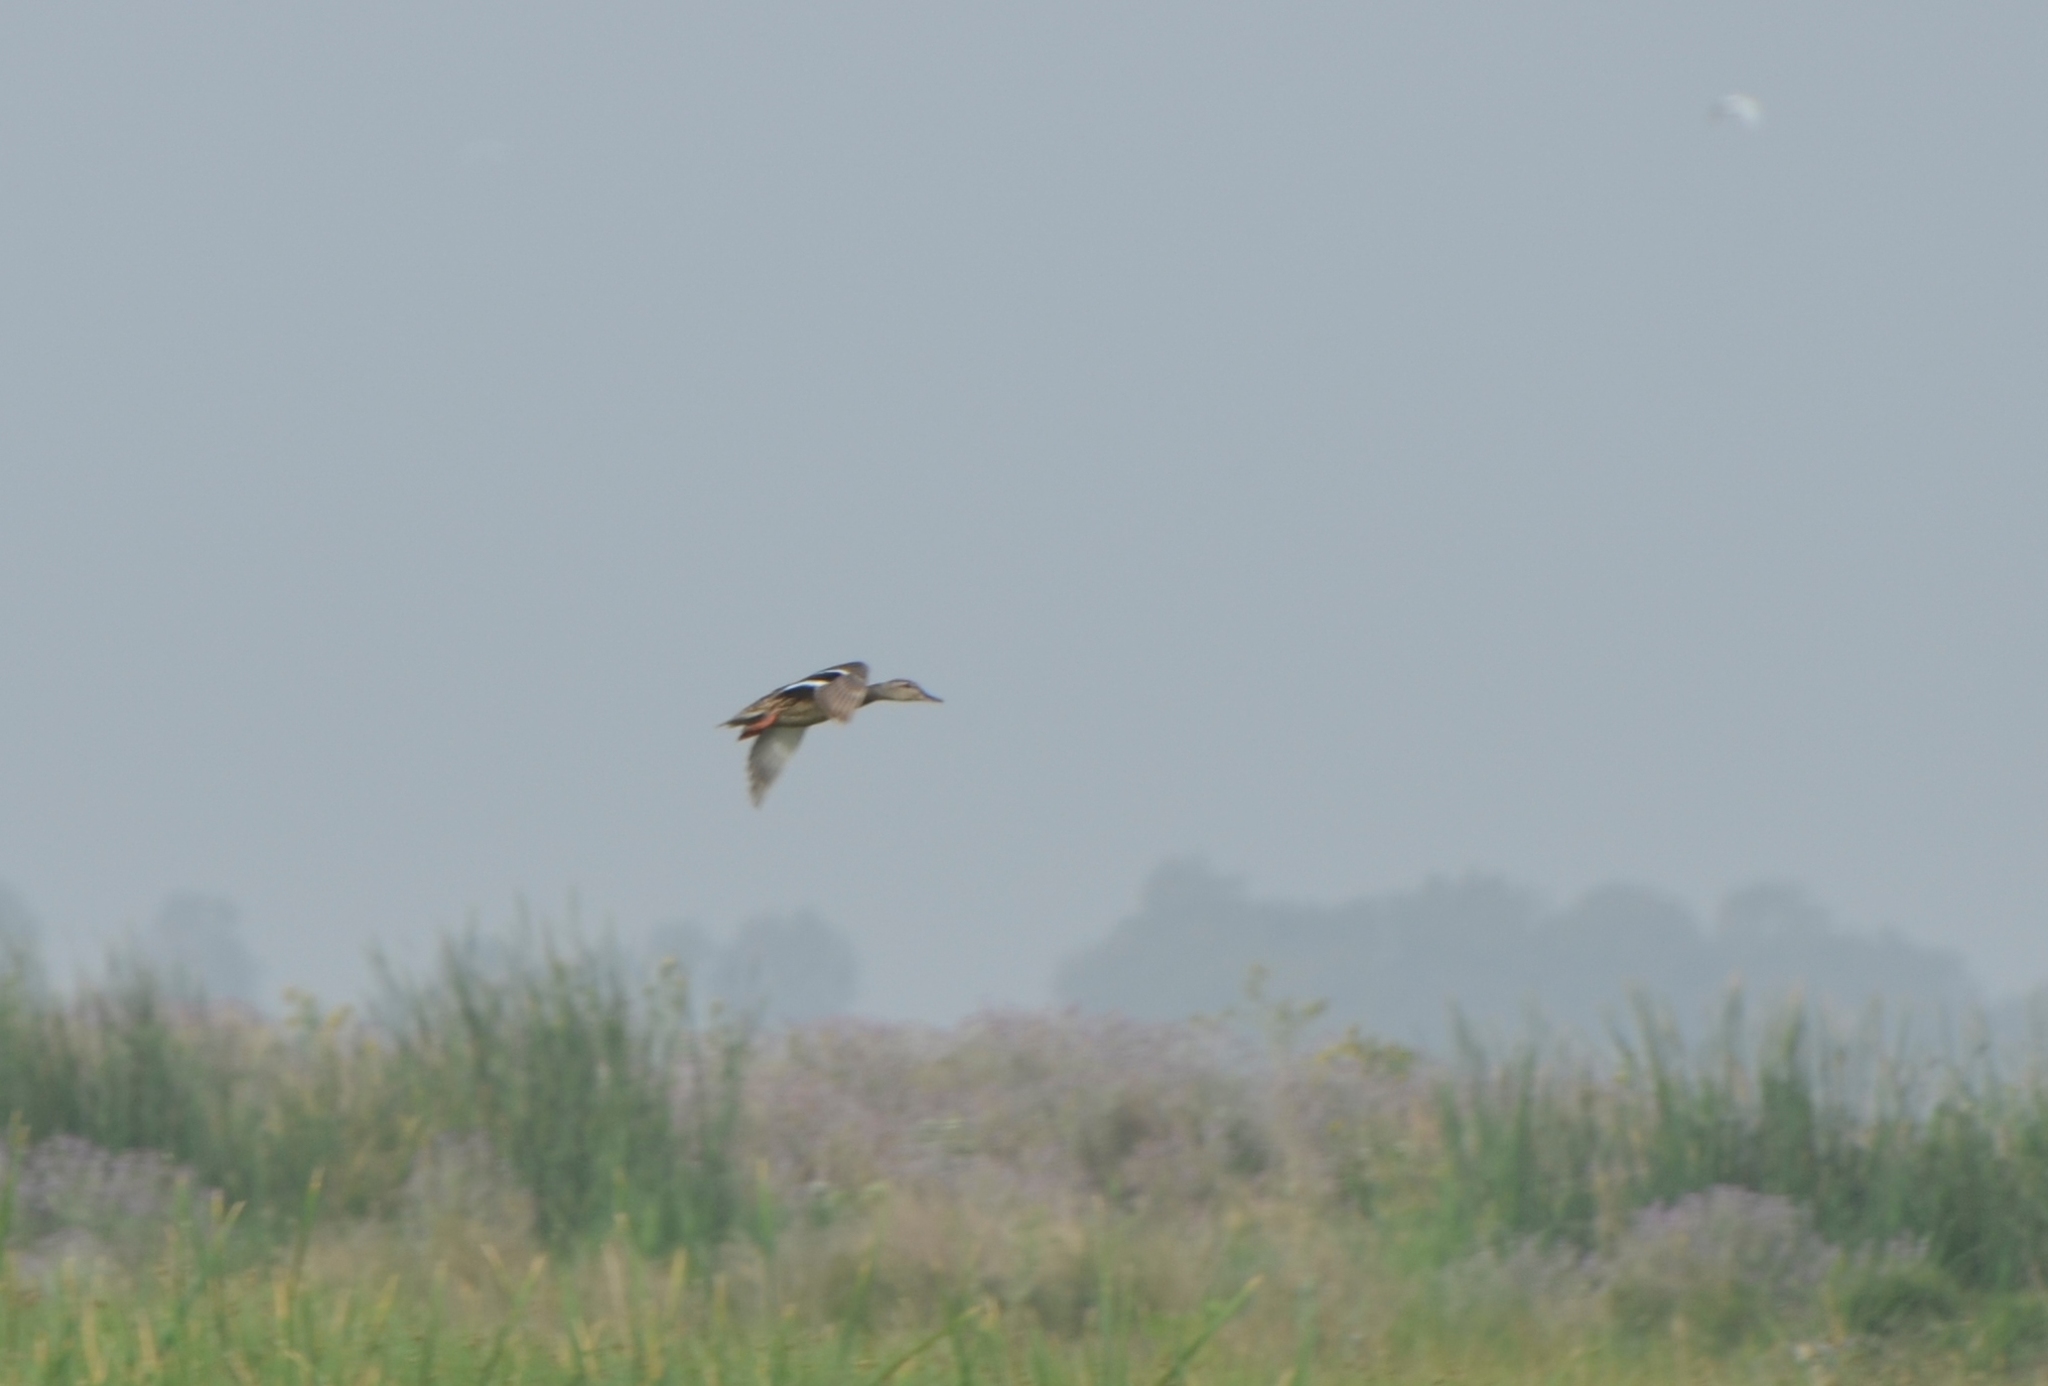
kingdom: Animalia
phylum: Chordata
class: Aves
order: Anseriformes
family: Anatidae
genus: Anas
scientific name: Anas platyrhynchos
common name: Mallard
